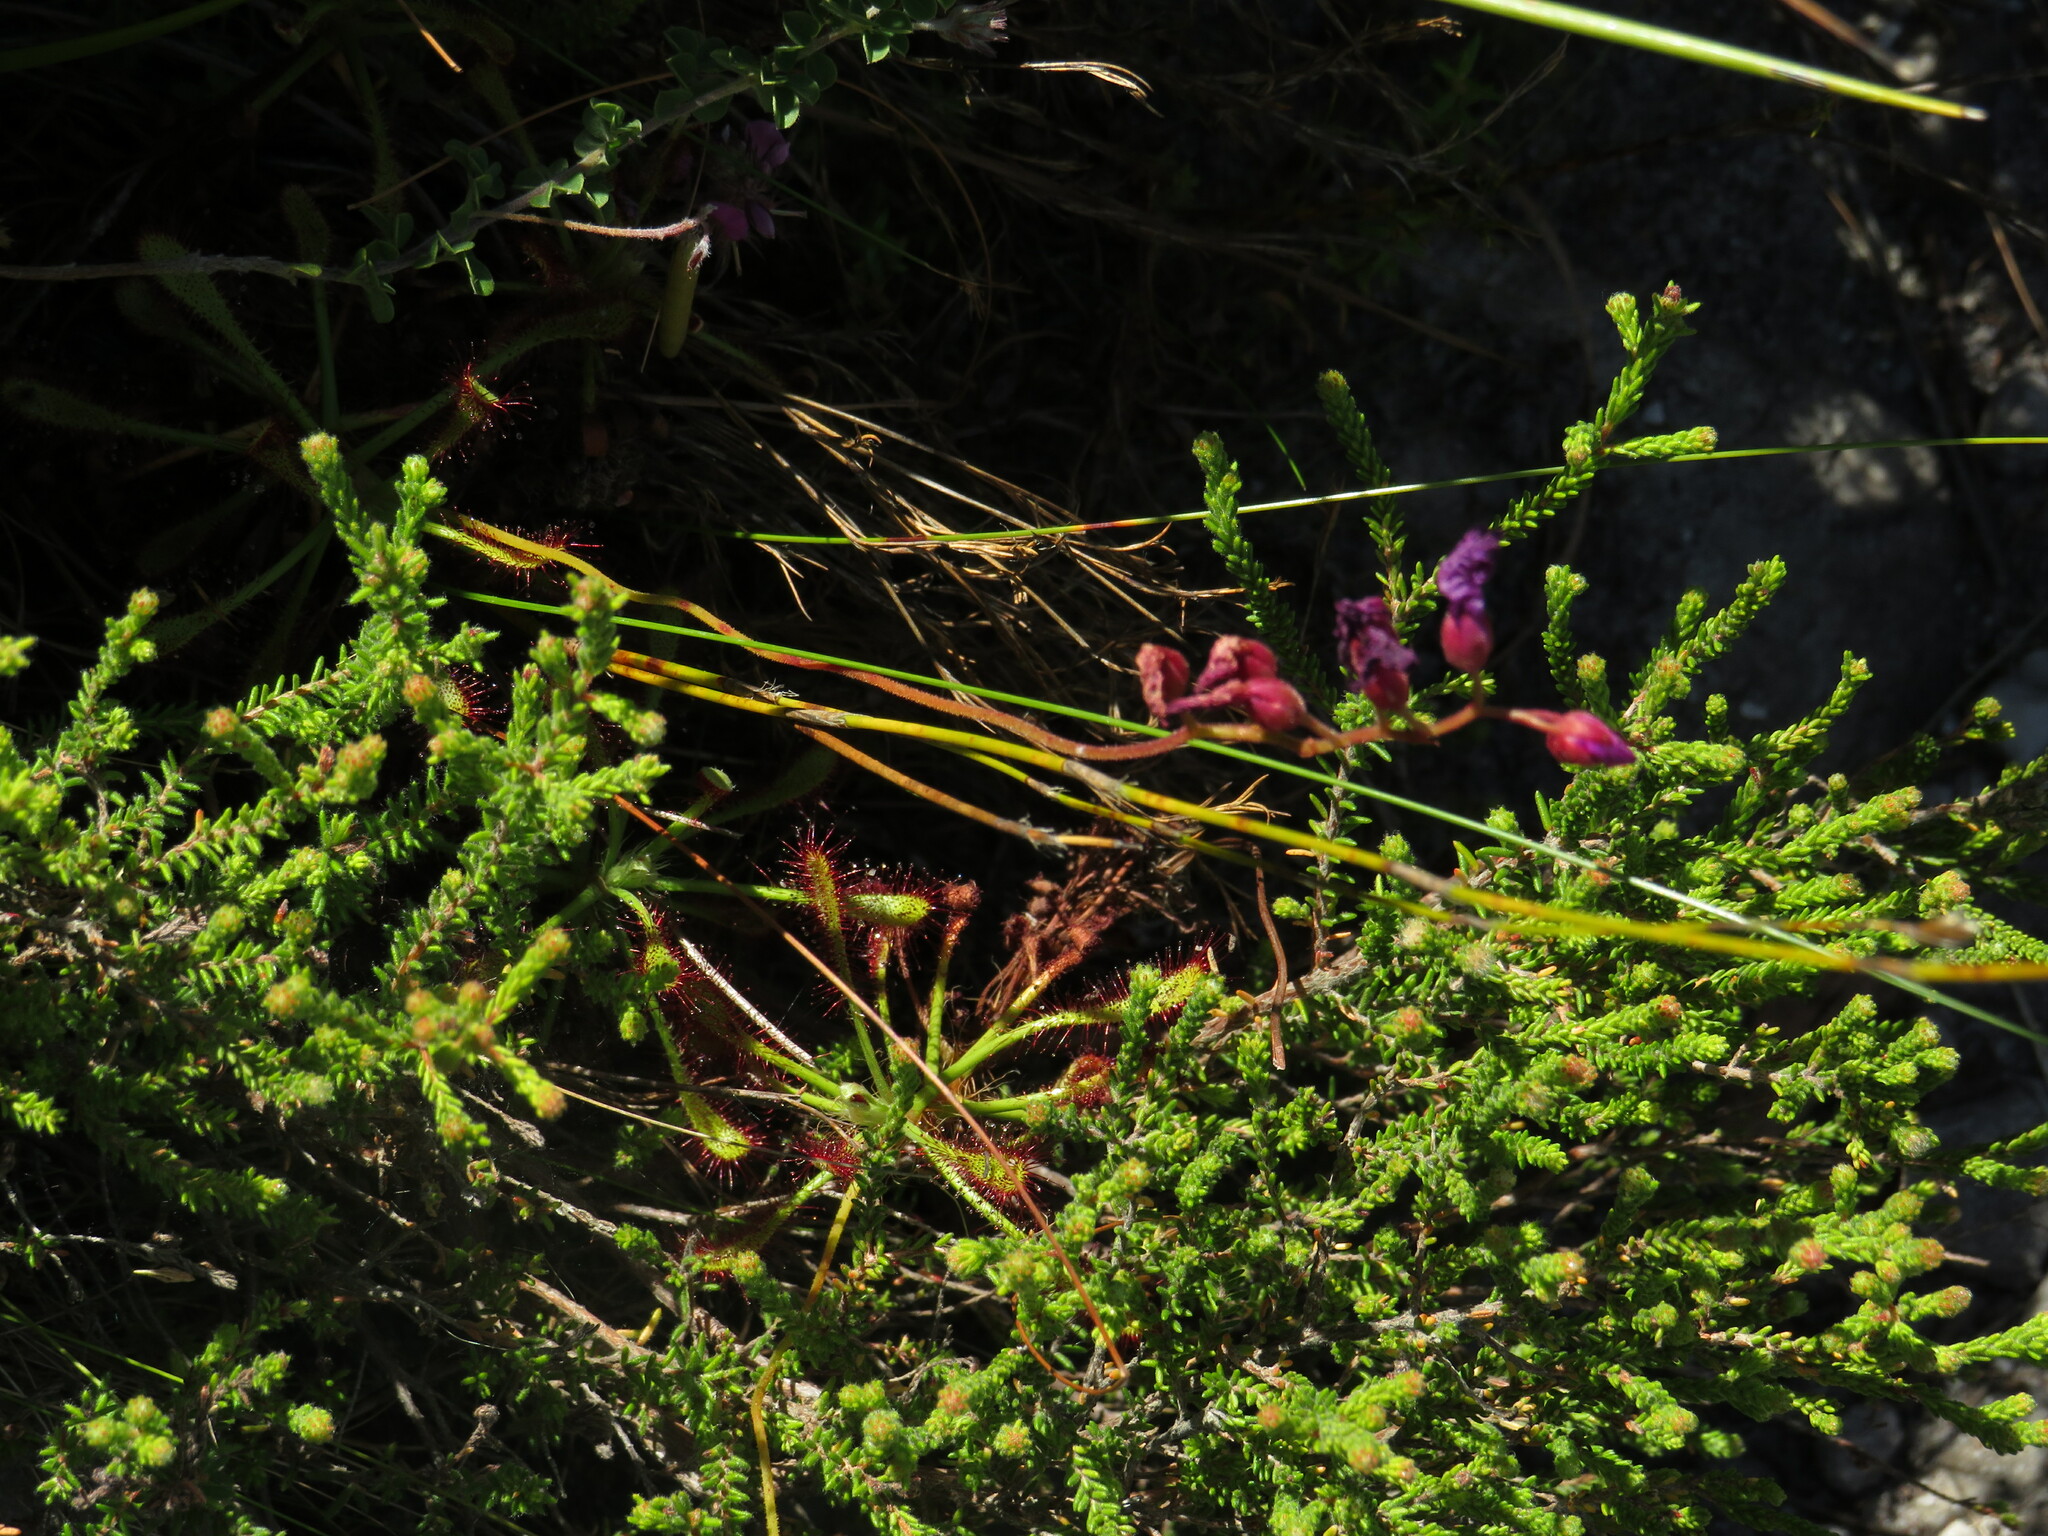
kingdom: Plantae
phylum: Tracheophyta
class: Magnoliopsida
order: Caryophyllales
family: Droseraceae
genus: Drosera
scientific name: Drosera glabripes
